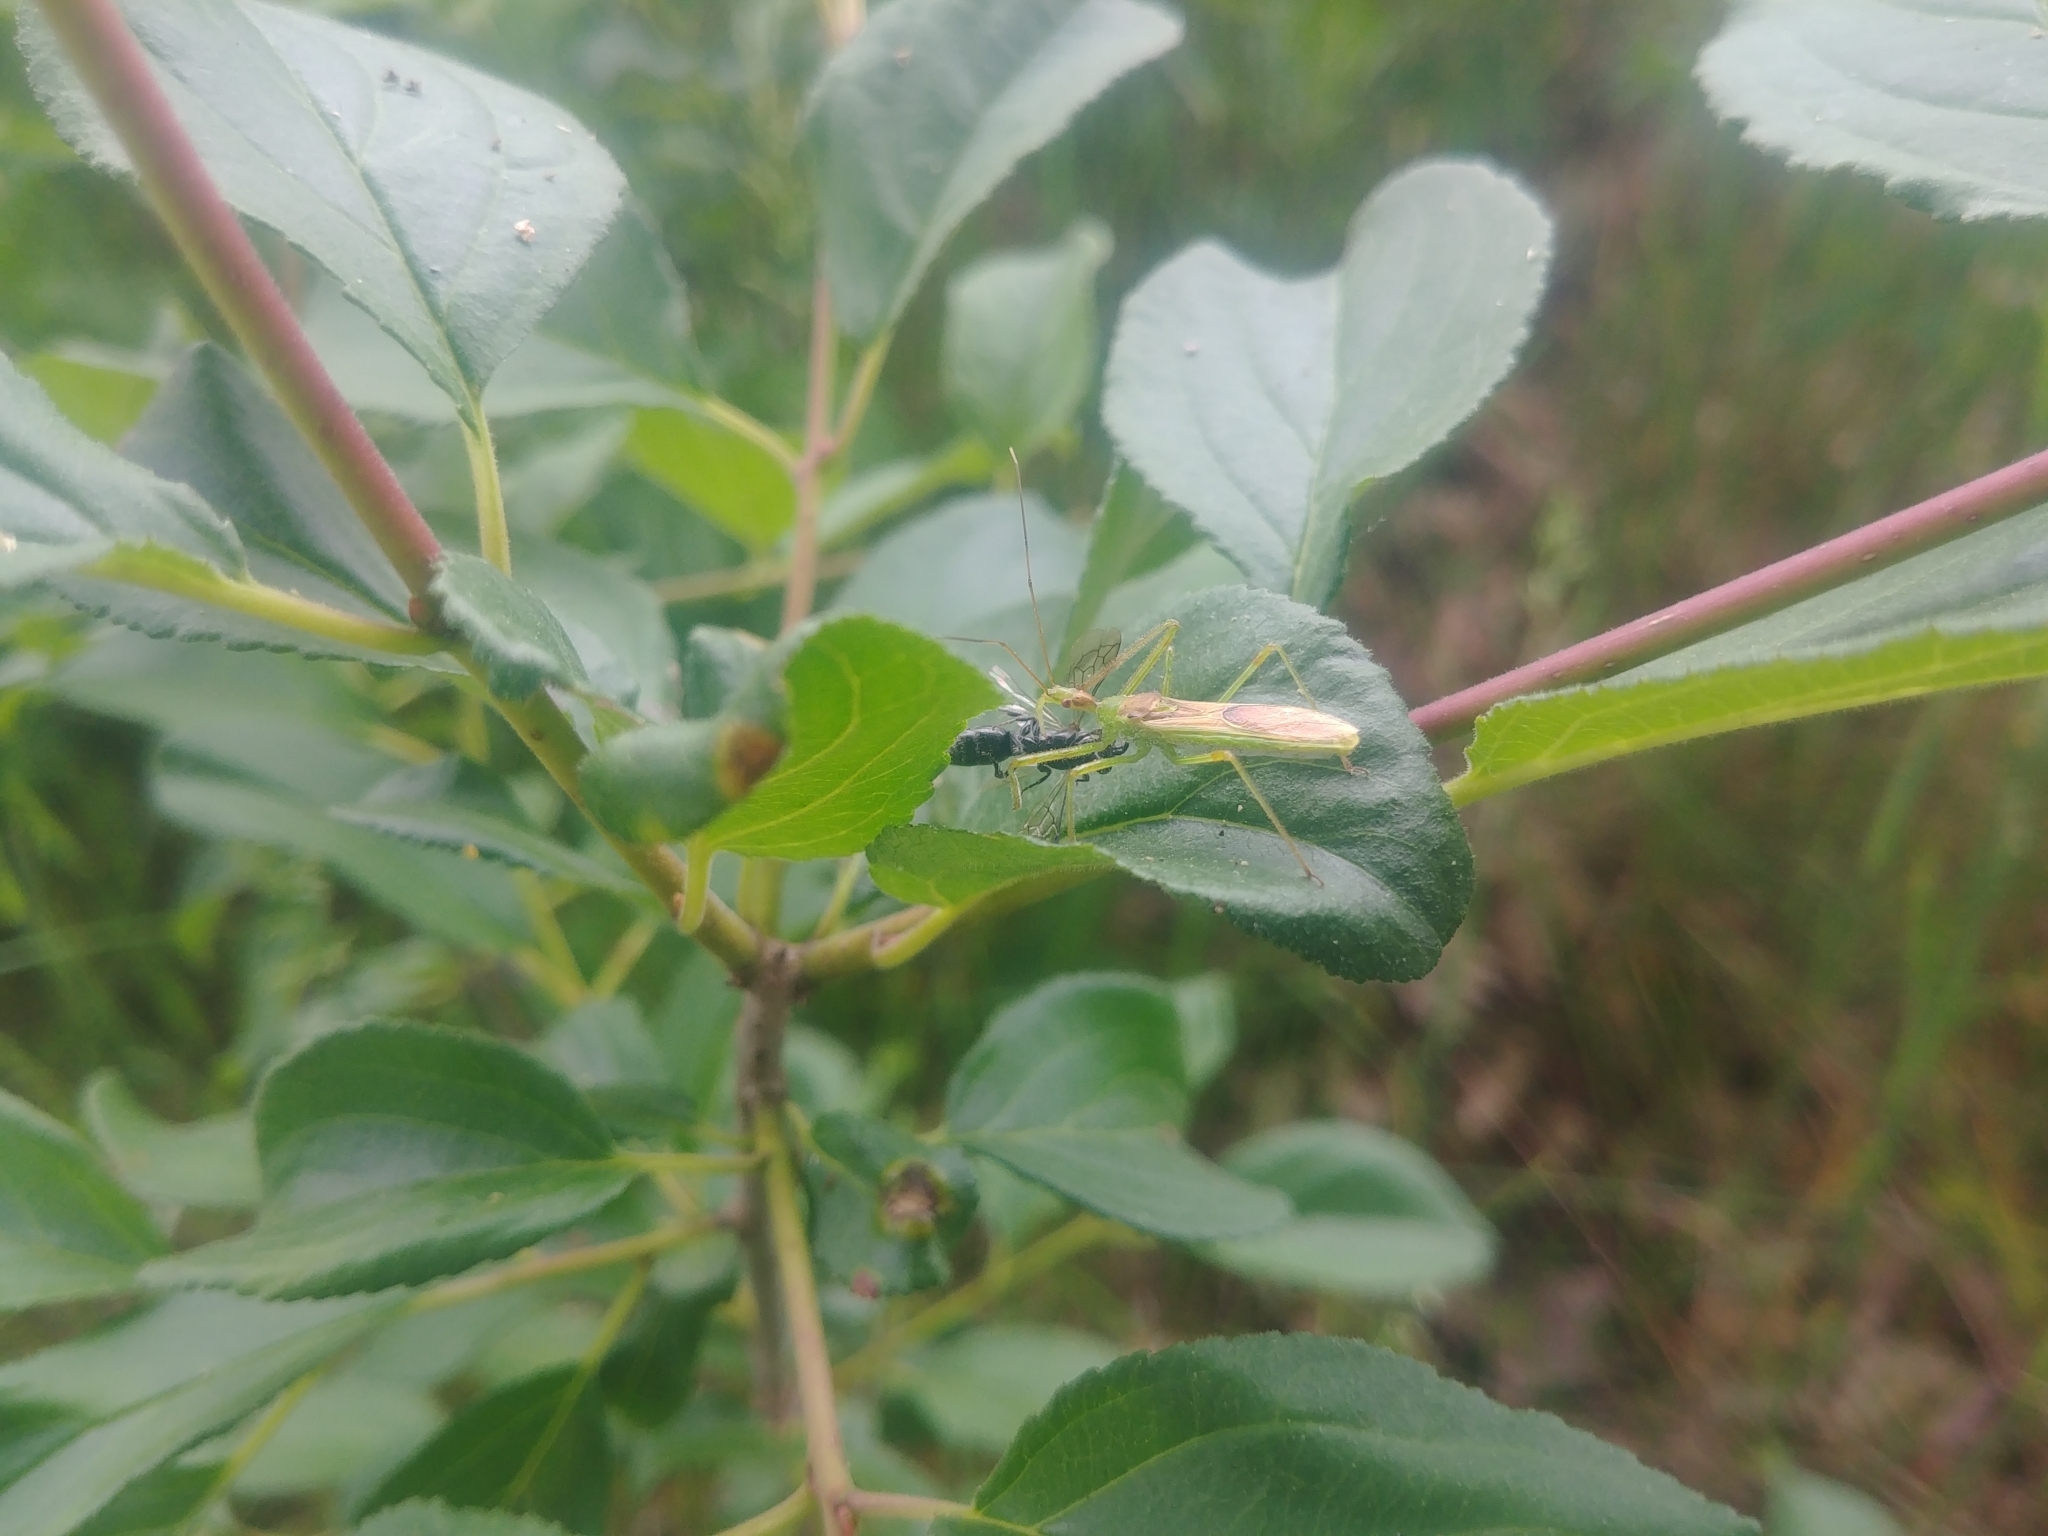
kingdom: Animalia
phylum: Arthropoda
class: Insecta
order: Hemiptera
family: Reduviidae
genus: Zelus
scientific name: Zelus luridus
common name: Pale green assassin bug
